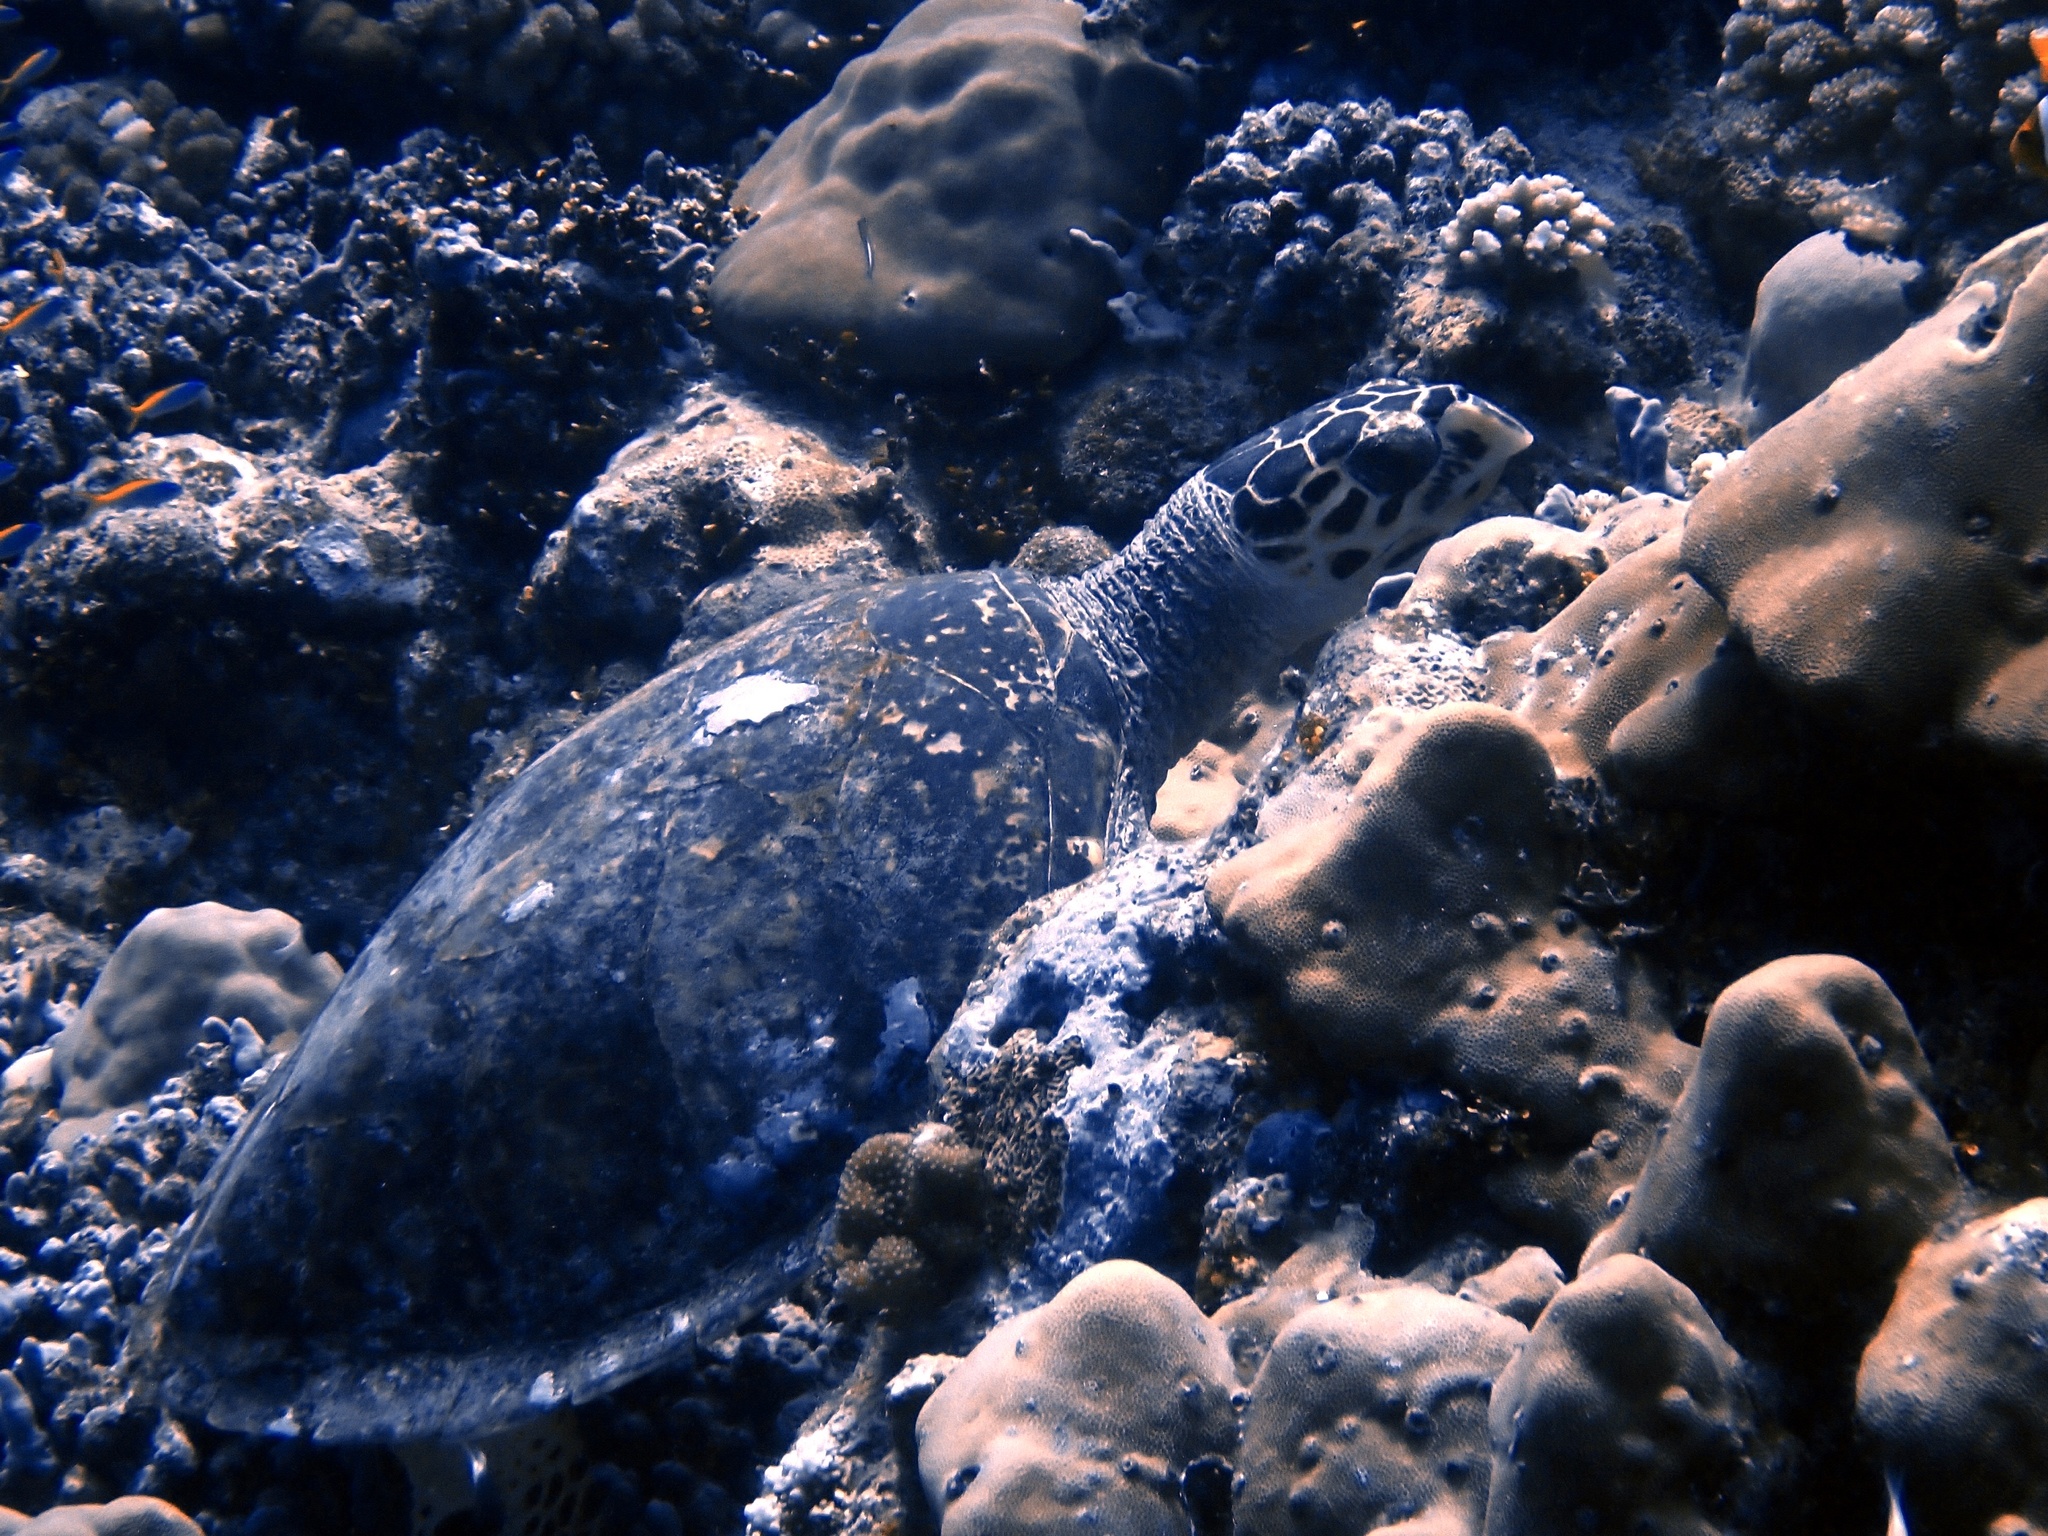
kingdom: Animalia
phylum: Chordata
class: Testudines
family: Cheloniidae
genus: Eretmochelys
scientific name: Eretmochelys imbricata
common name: Hawksbill turtle
